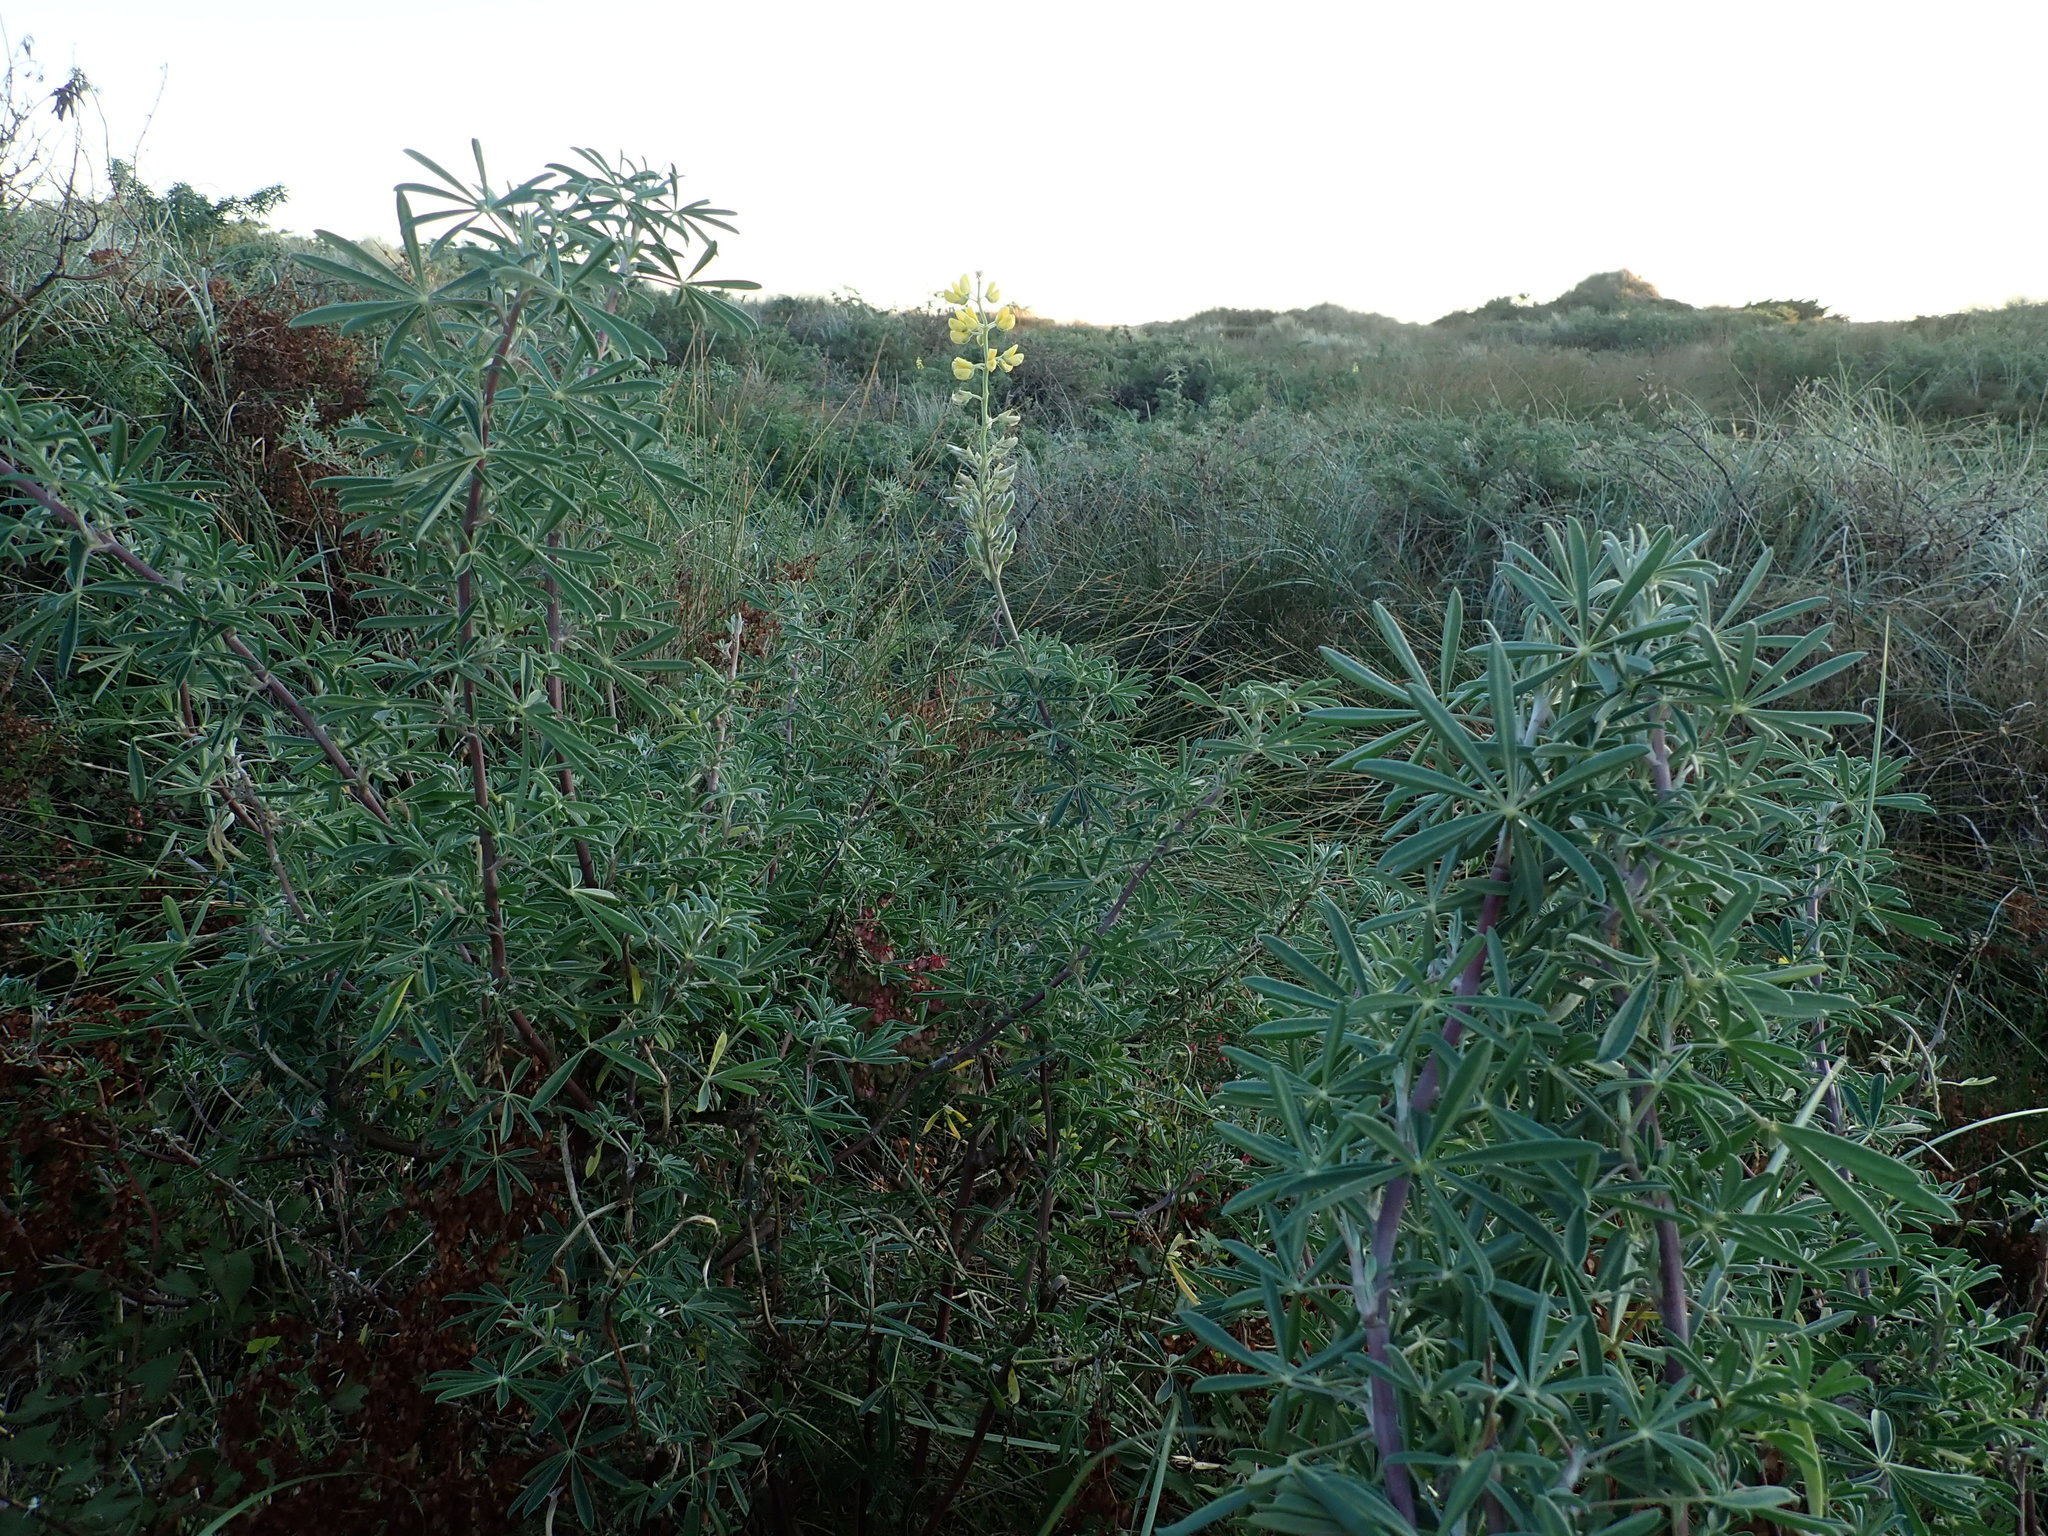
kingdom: Plantae
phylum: Tracheophyta
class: Magnoliopsida
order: Fabales
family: Fabaceae
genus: Lupinus
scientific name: Lupinus arboreus
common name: Yellow bush lupine
